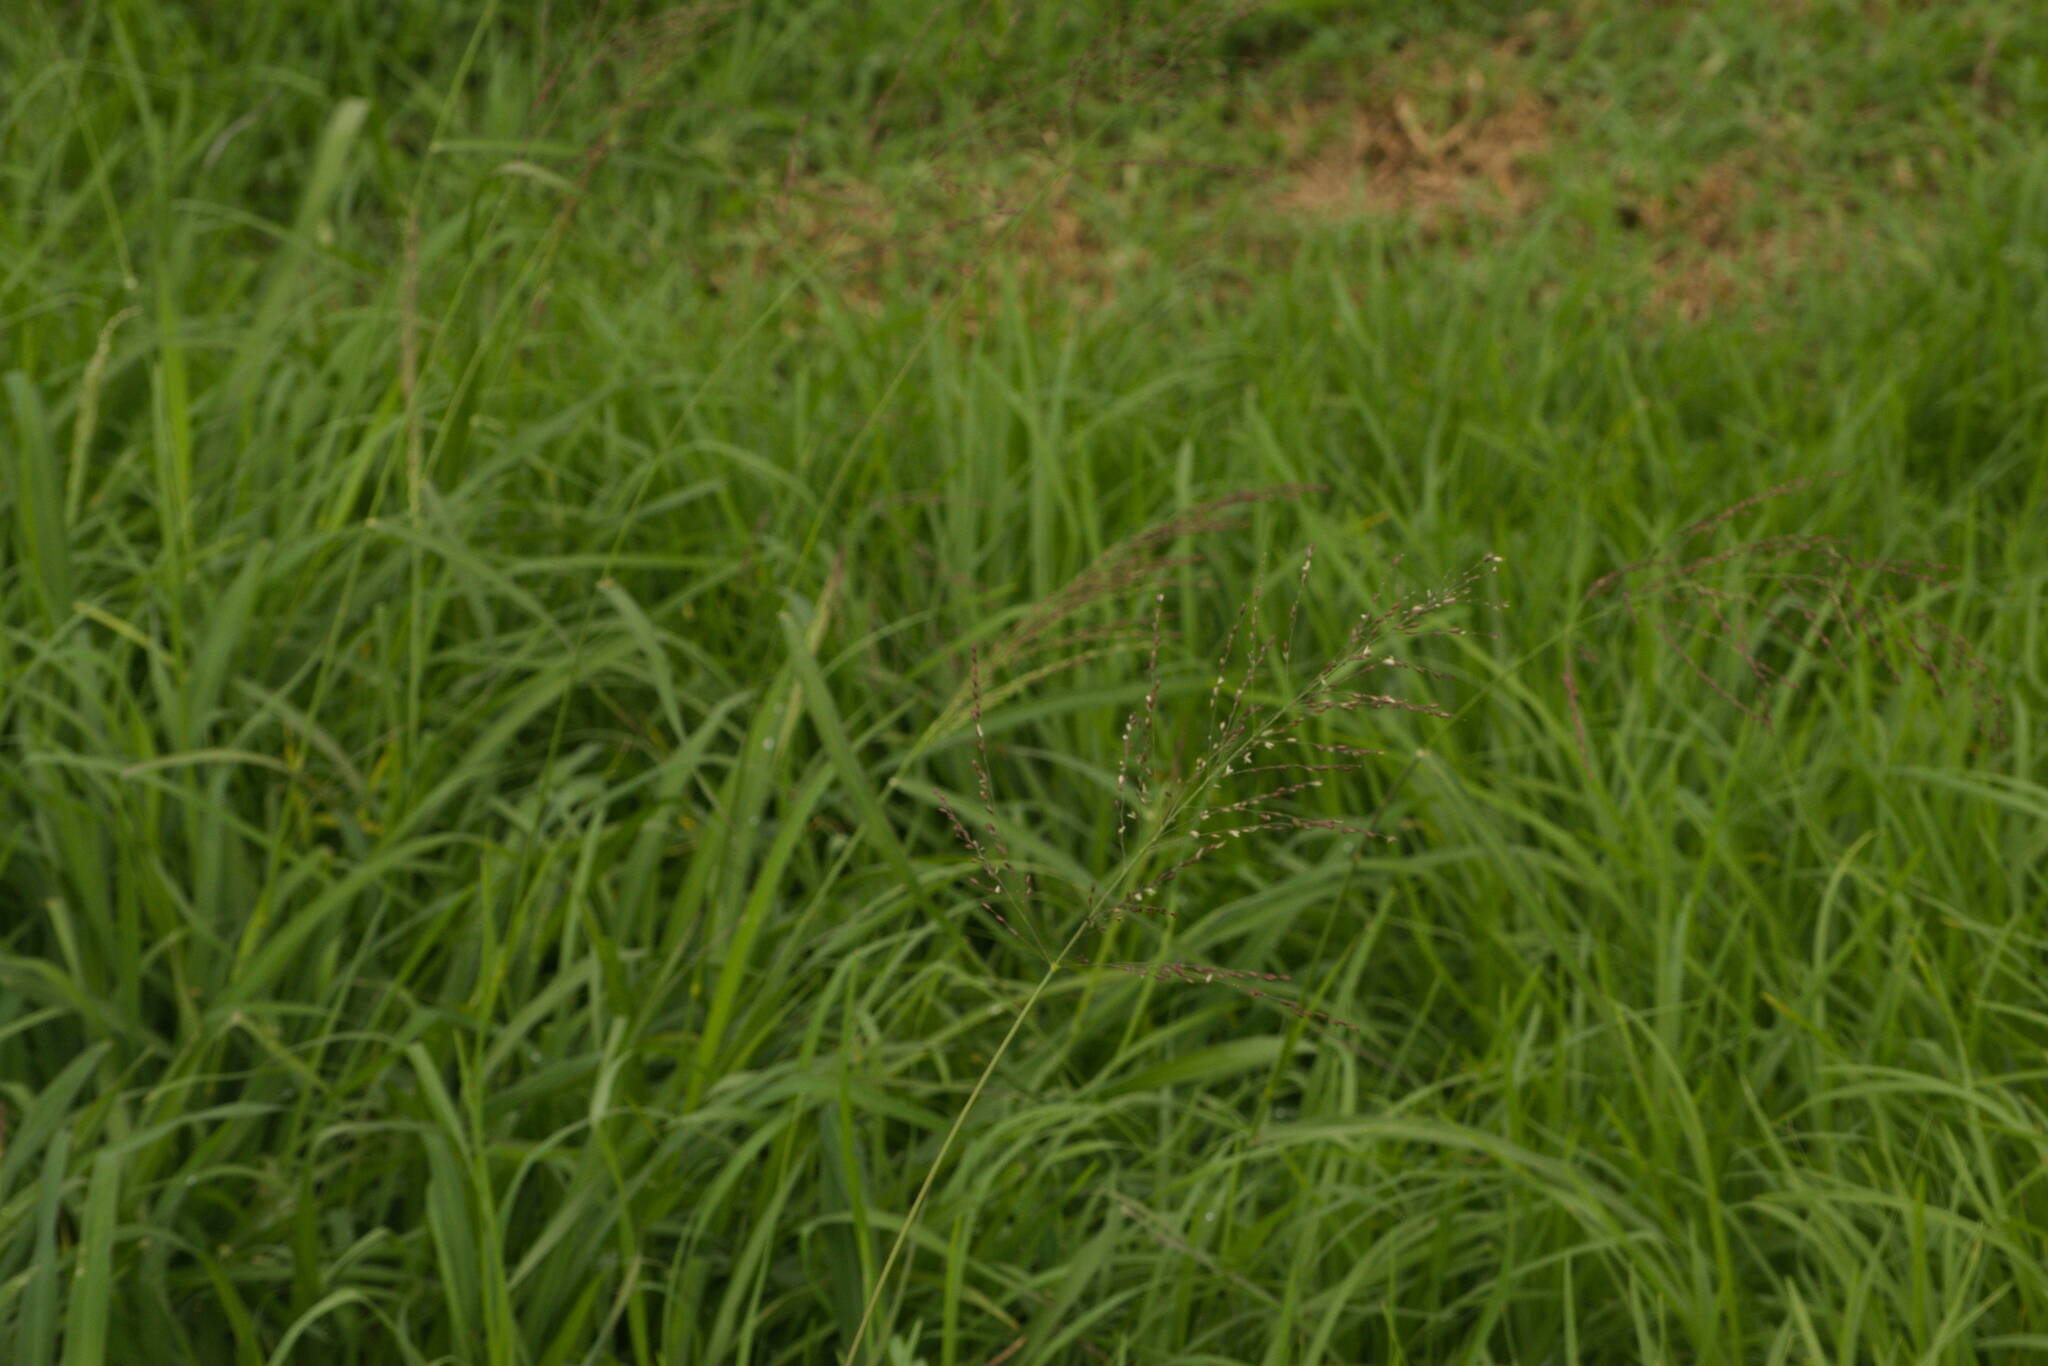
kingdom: Plantae
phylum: Tracheophyta
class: Liliopsida
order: Poales
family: Poaceae
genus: Megathyrsus
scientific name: Megathyrsus maximus
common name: Guineagrass
